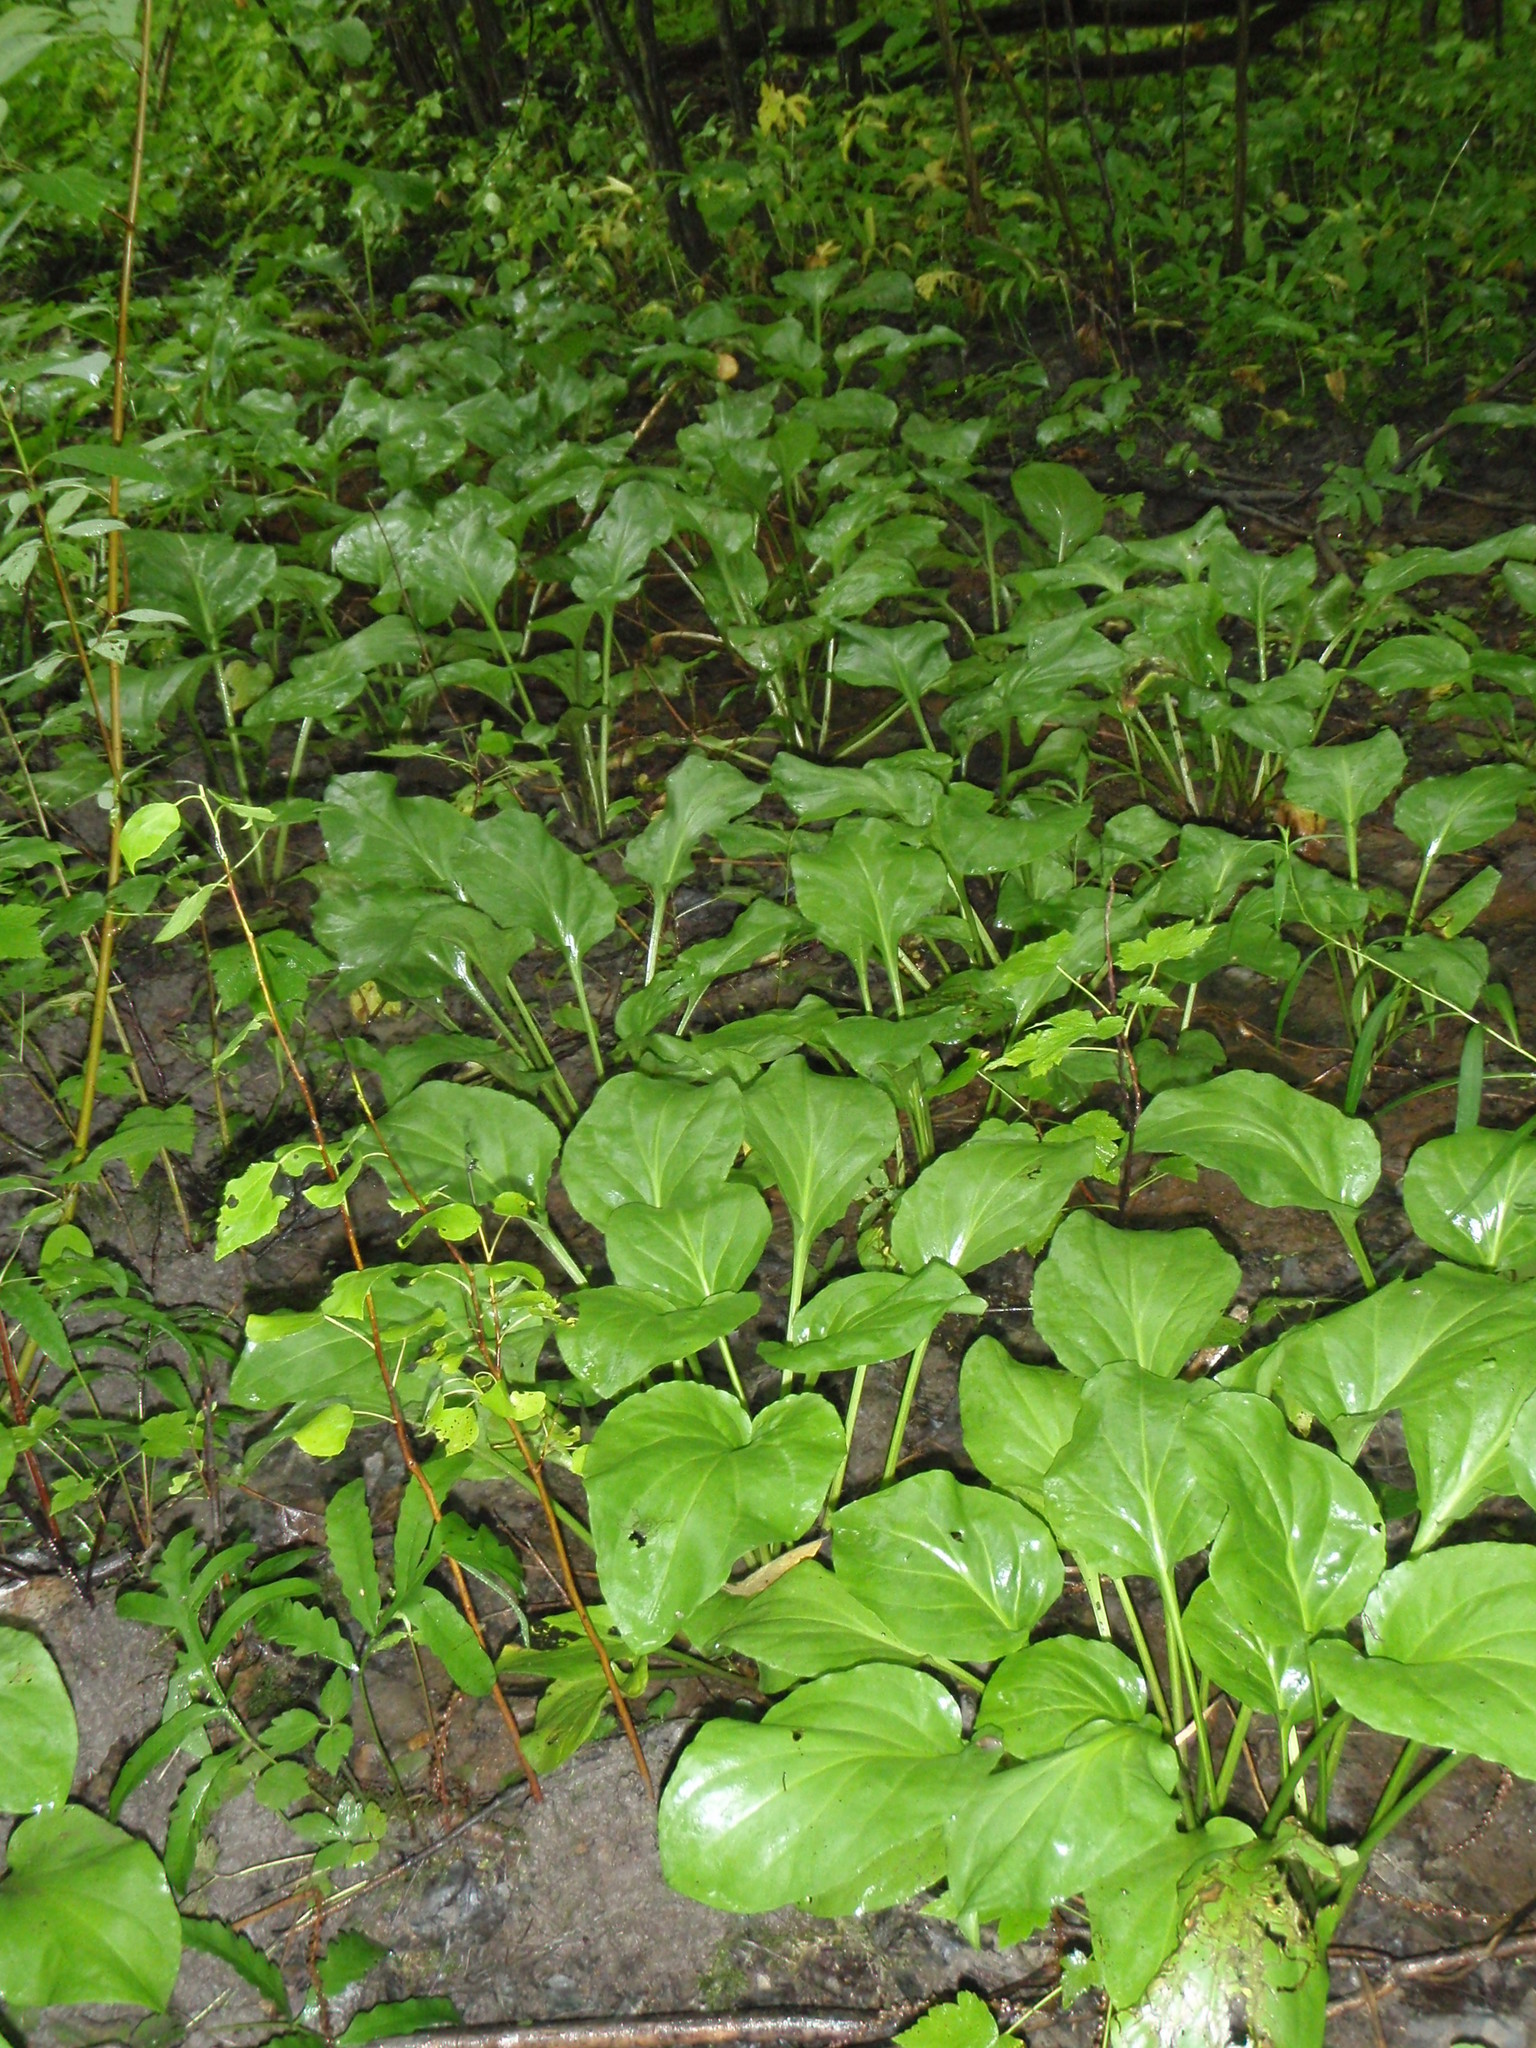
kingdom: Plantae
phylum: Tracheophyta
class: Magnoliopsida
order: Lamiales
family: Plantaginaceae
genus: Plantago
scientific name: Plantago cordata
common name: Kingroot
